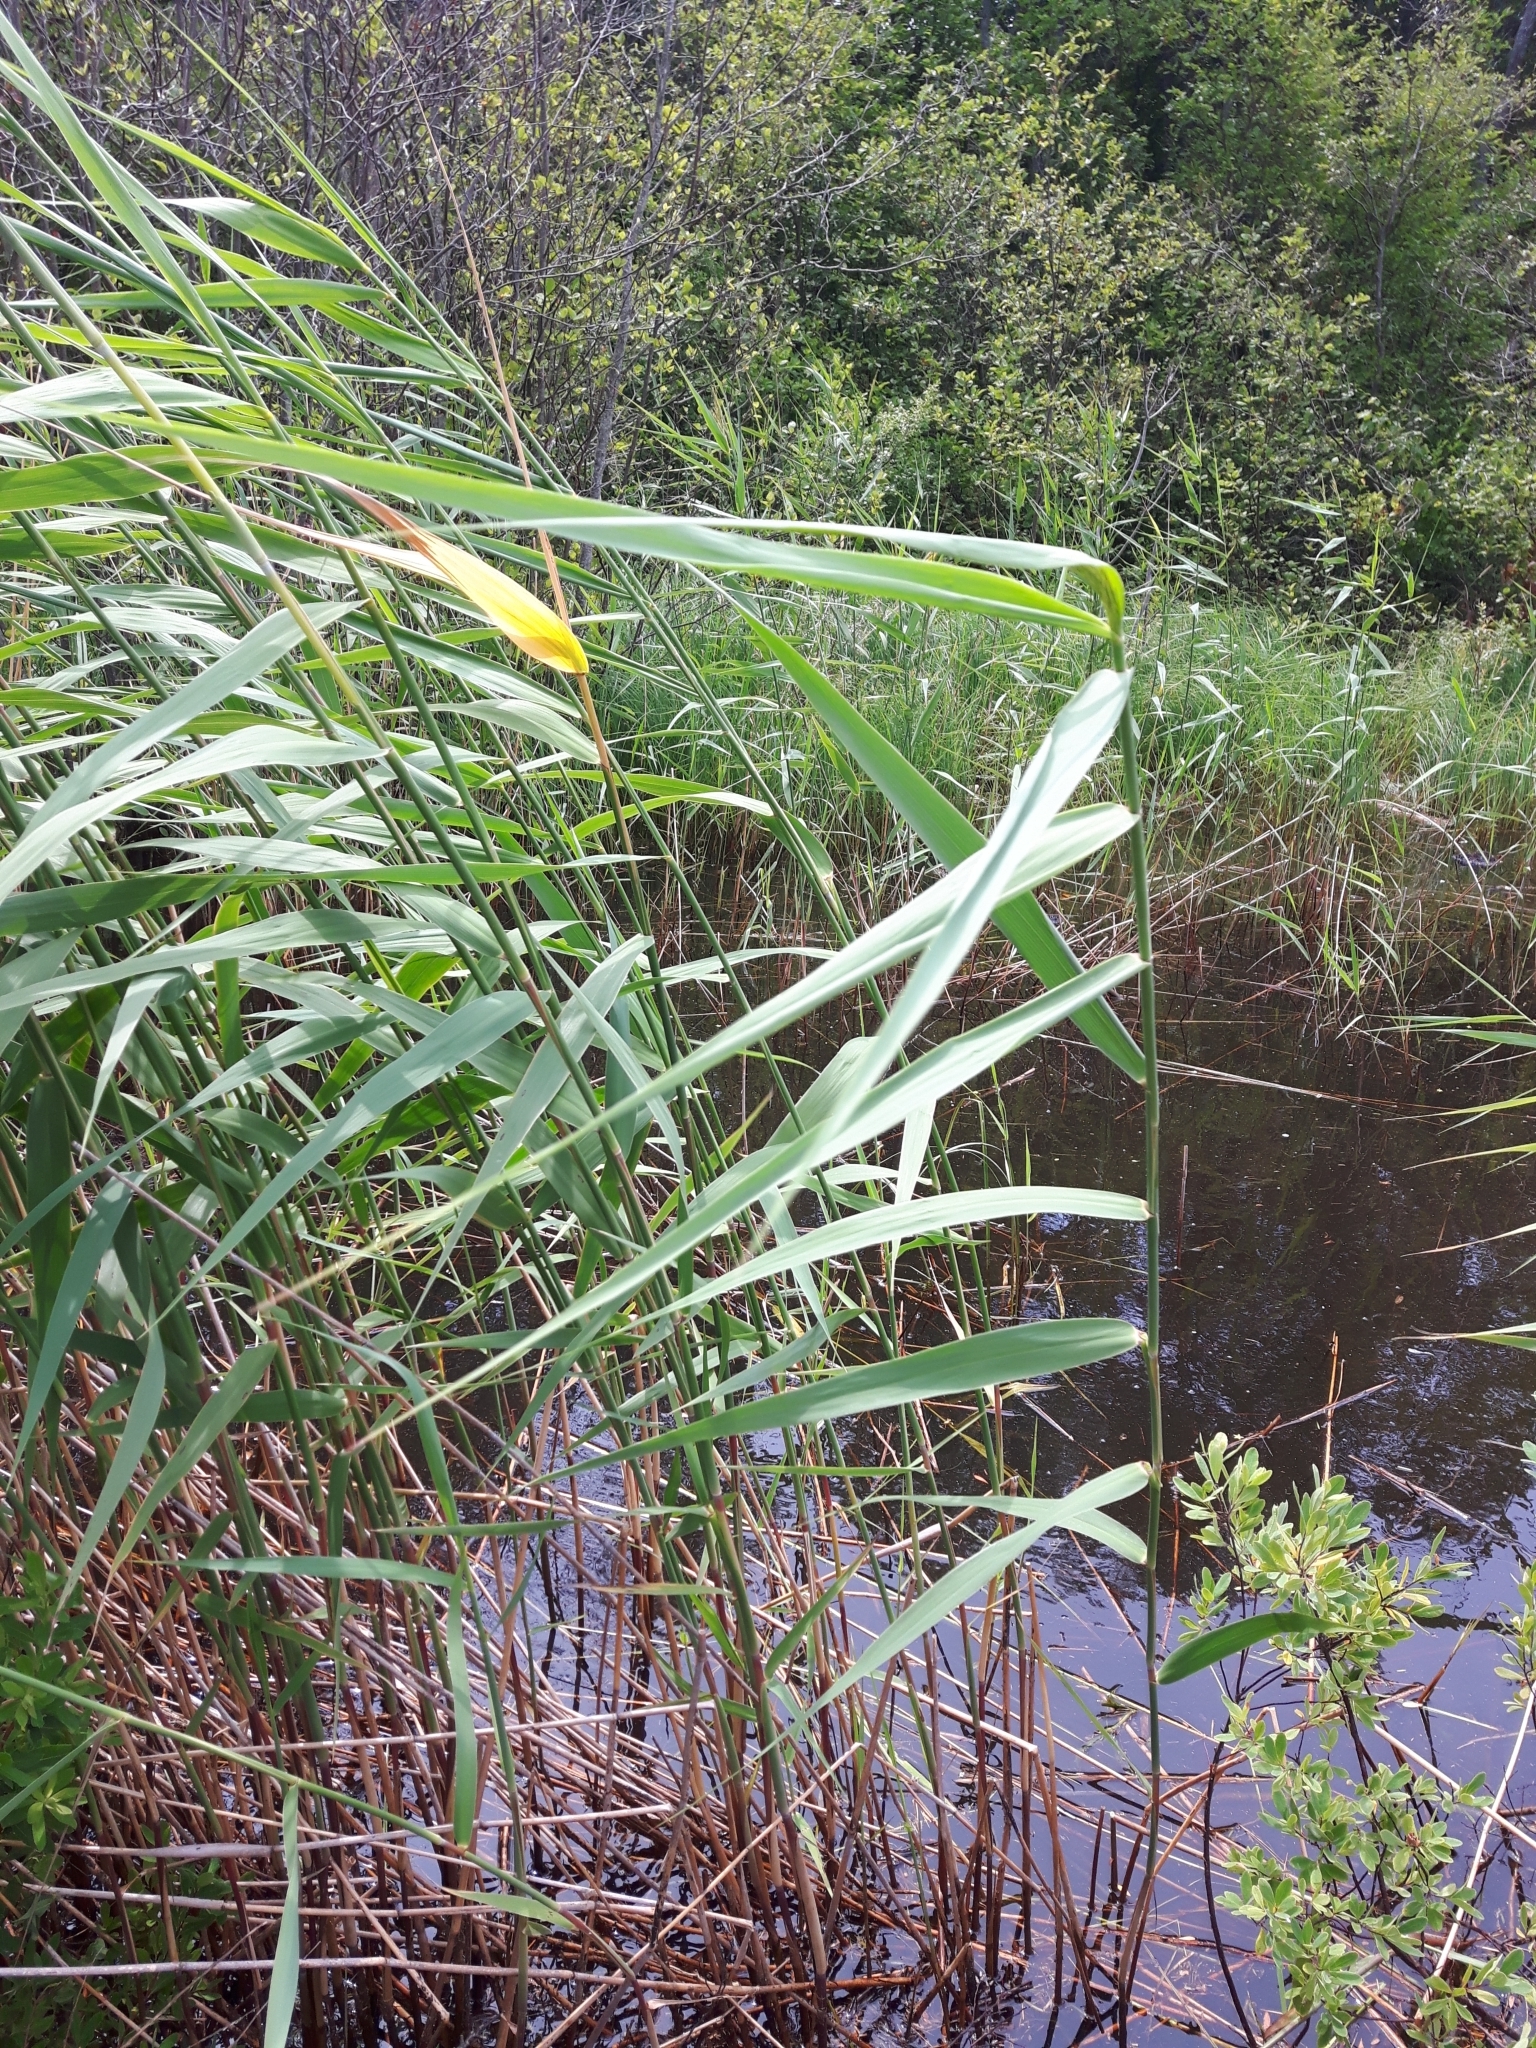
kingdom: Plantae
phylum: Tracheophyta
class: Liliopsida
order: Poales
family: Poaceae
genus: Phragmites
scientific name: Phragmites australis
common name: Common reed
